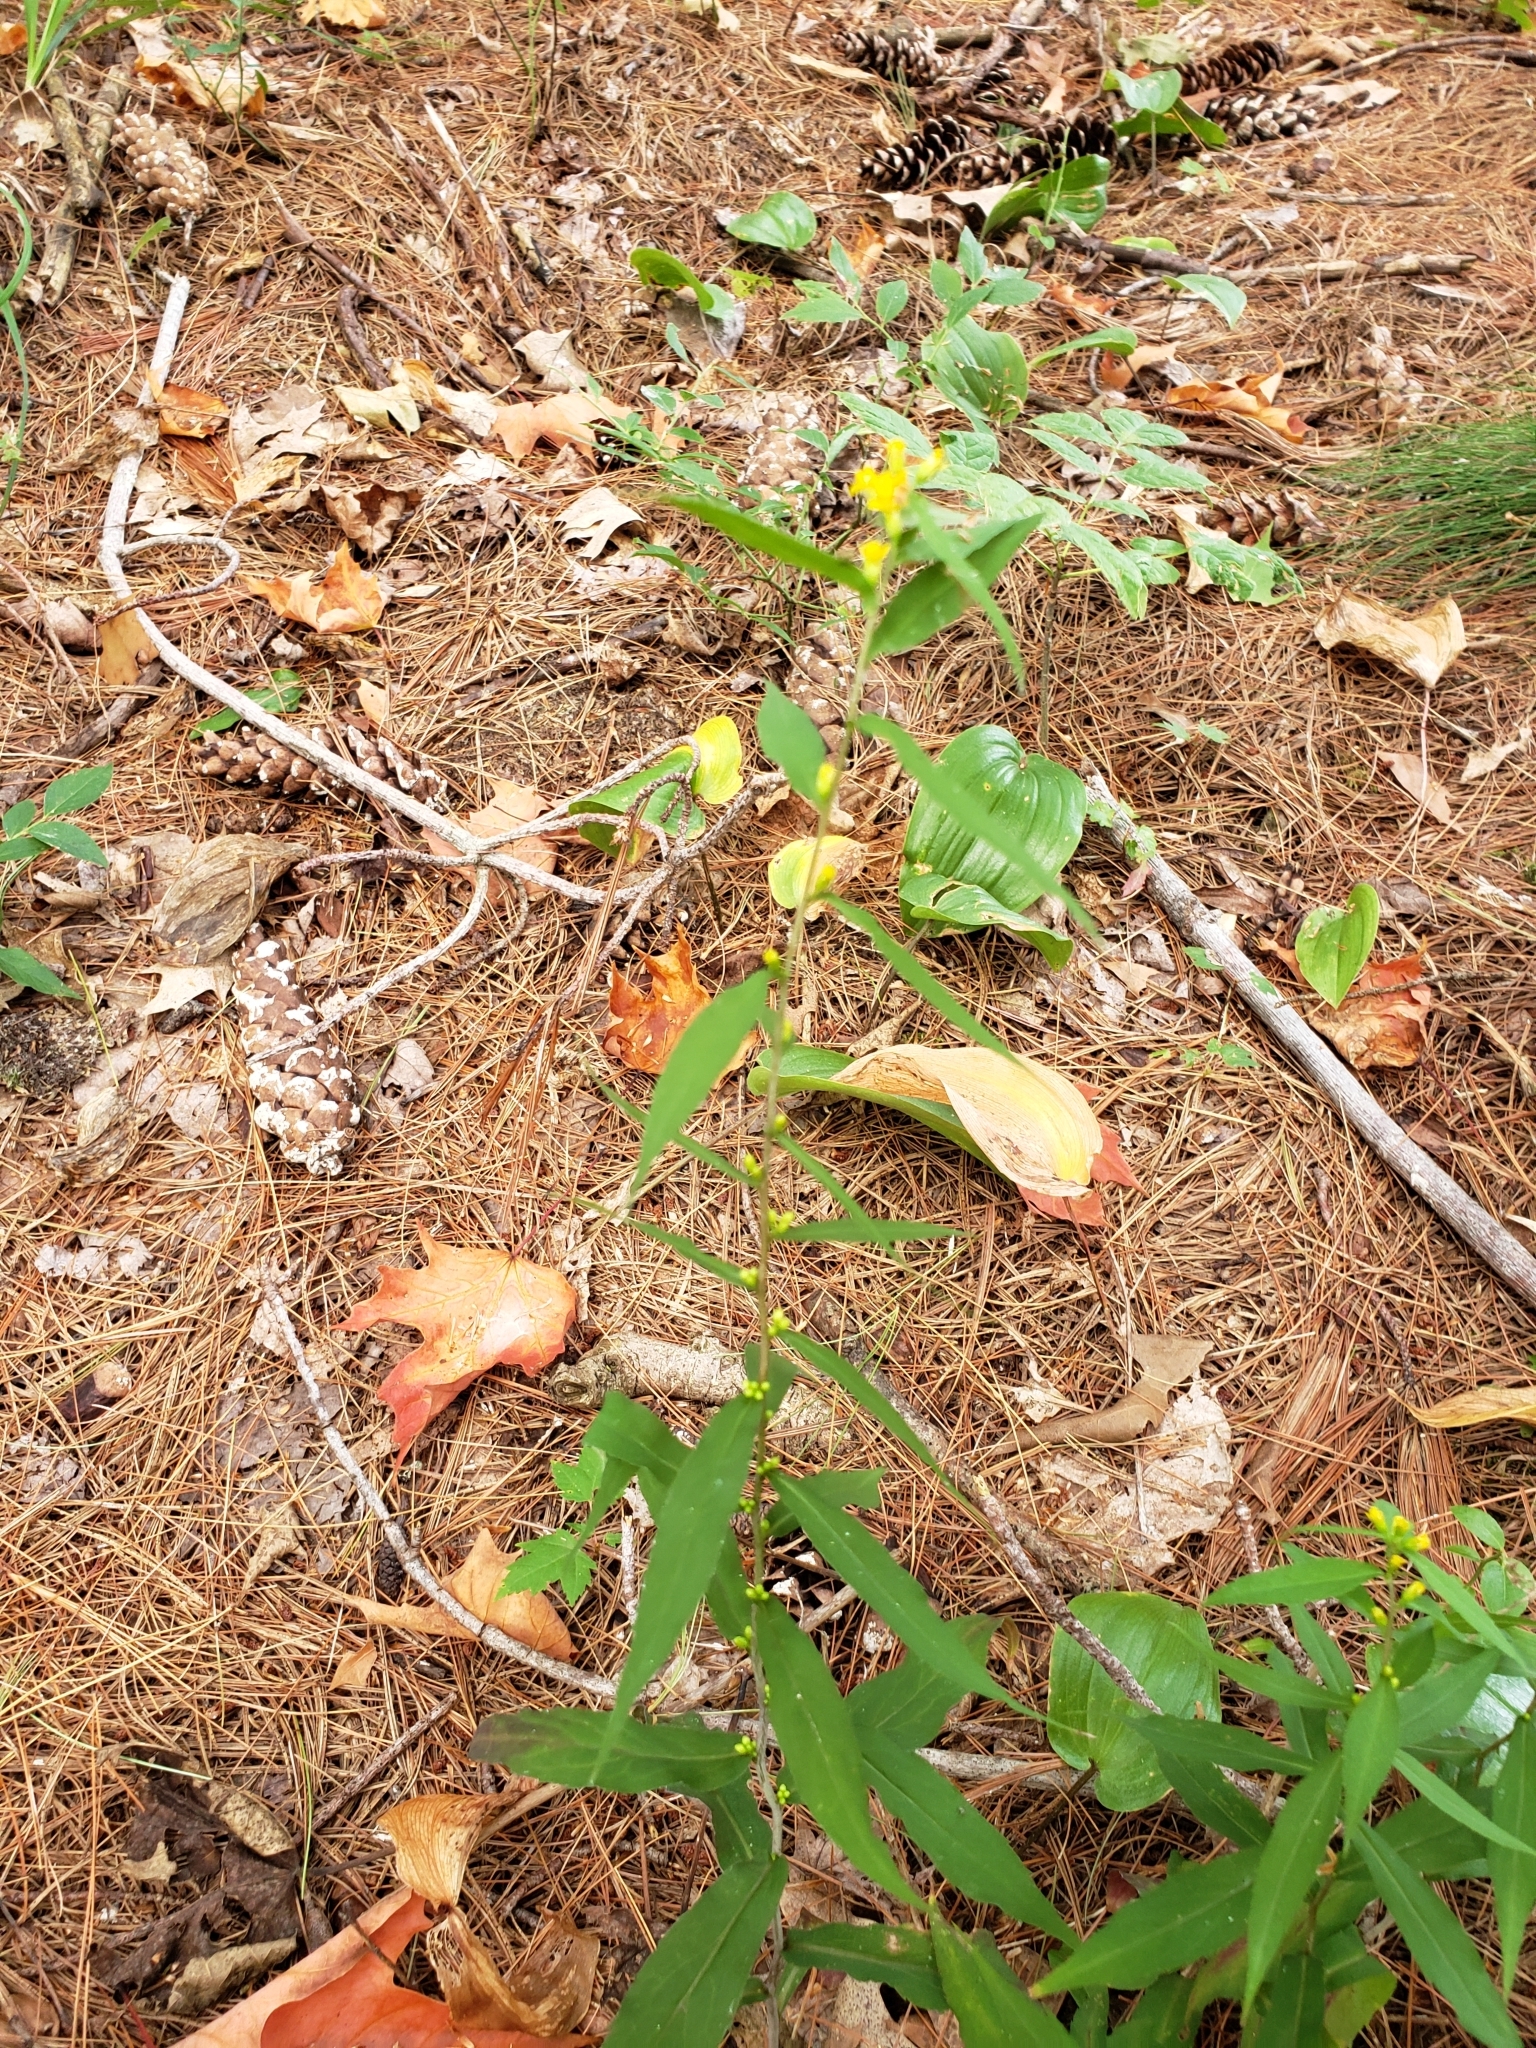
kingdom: Plantae
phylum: Tracheophyta
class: Magnoliopsida
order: Asterales
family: Asteraceae
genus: Solidago
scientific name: Solidago caesia
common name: Woodland goldenrod
